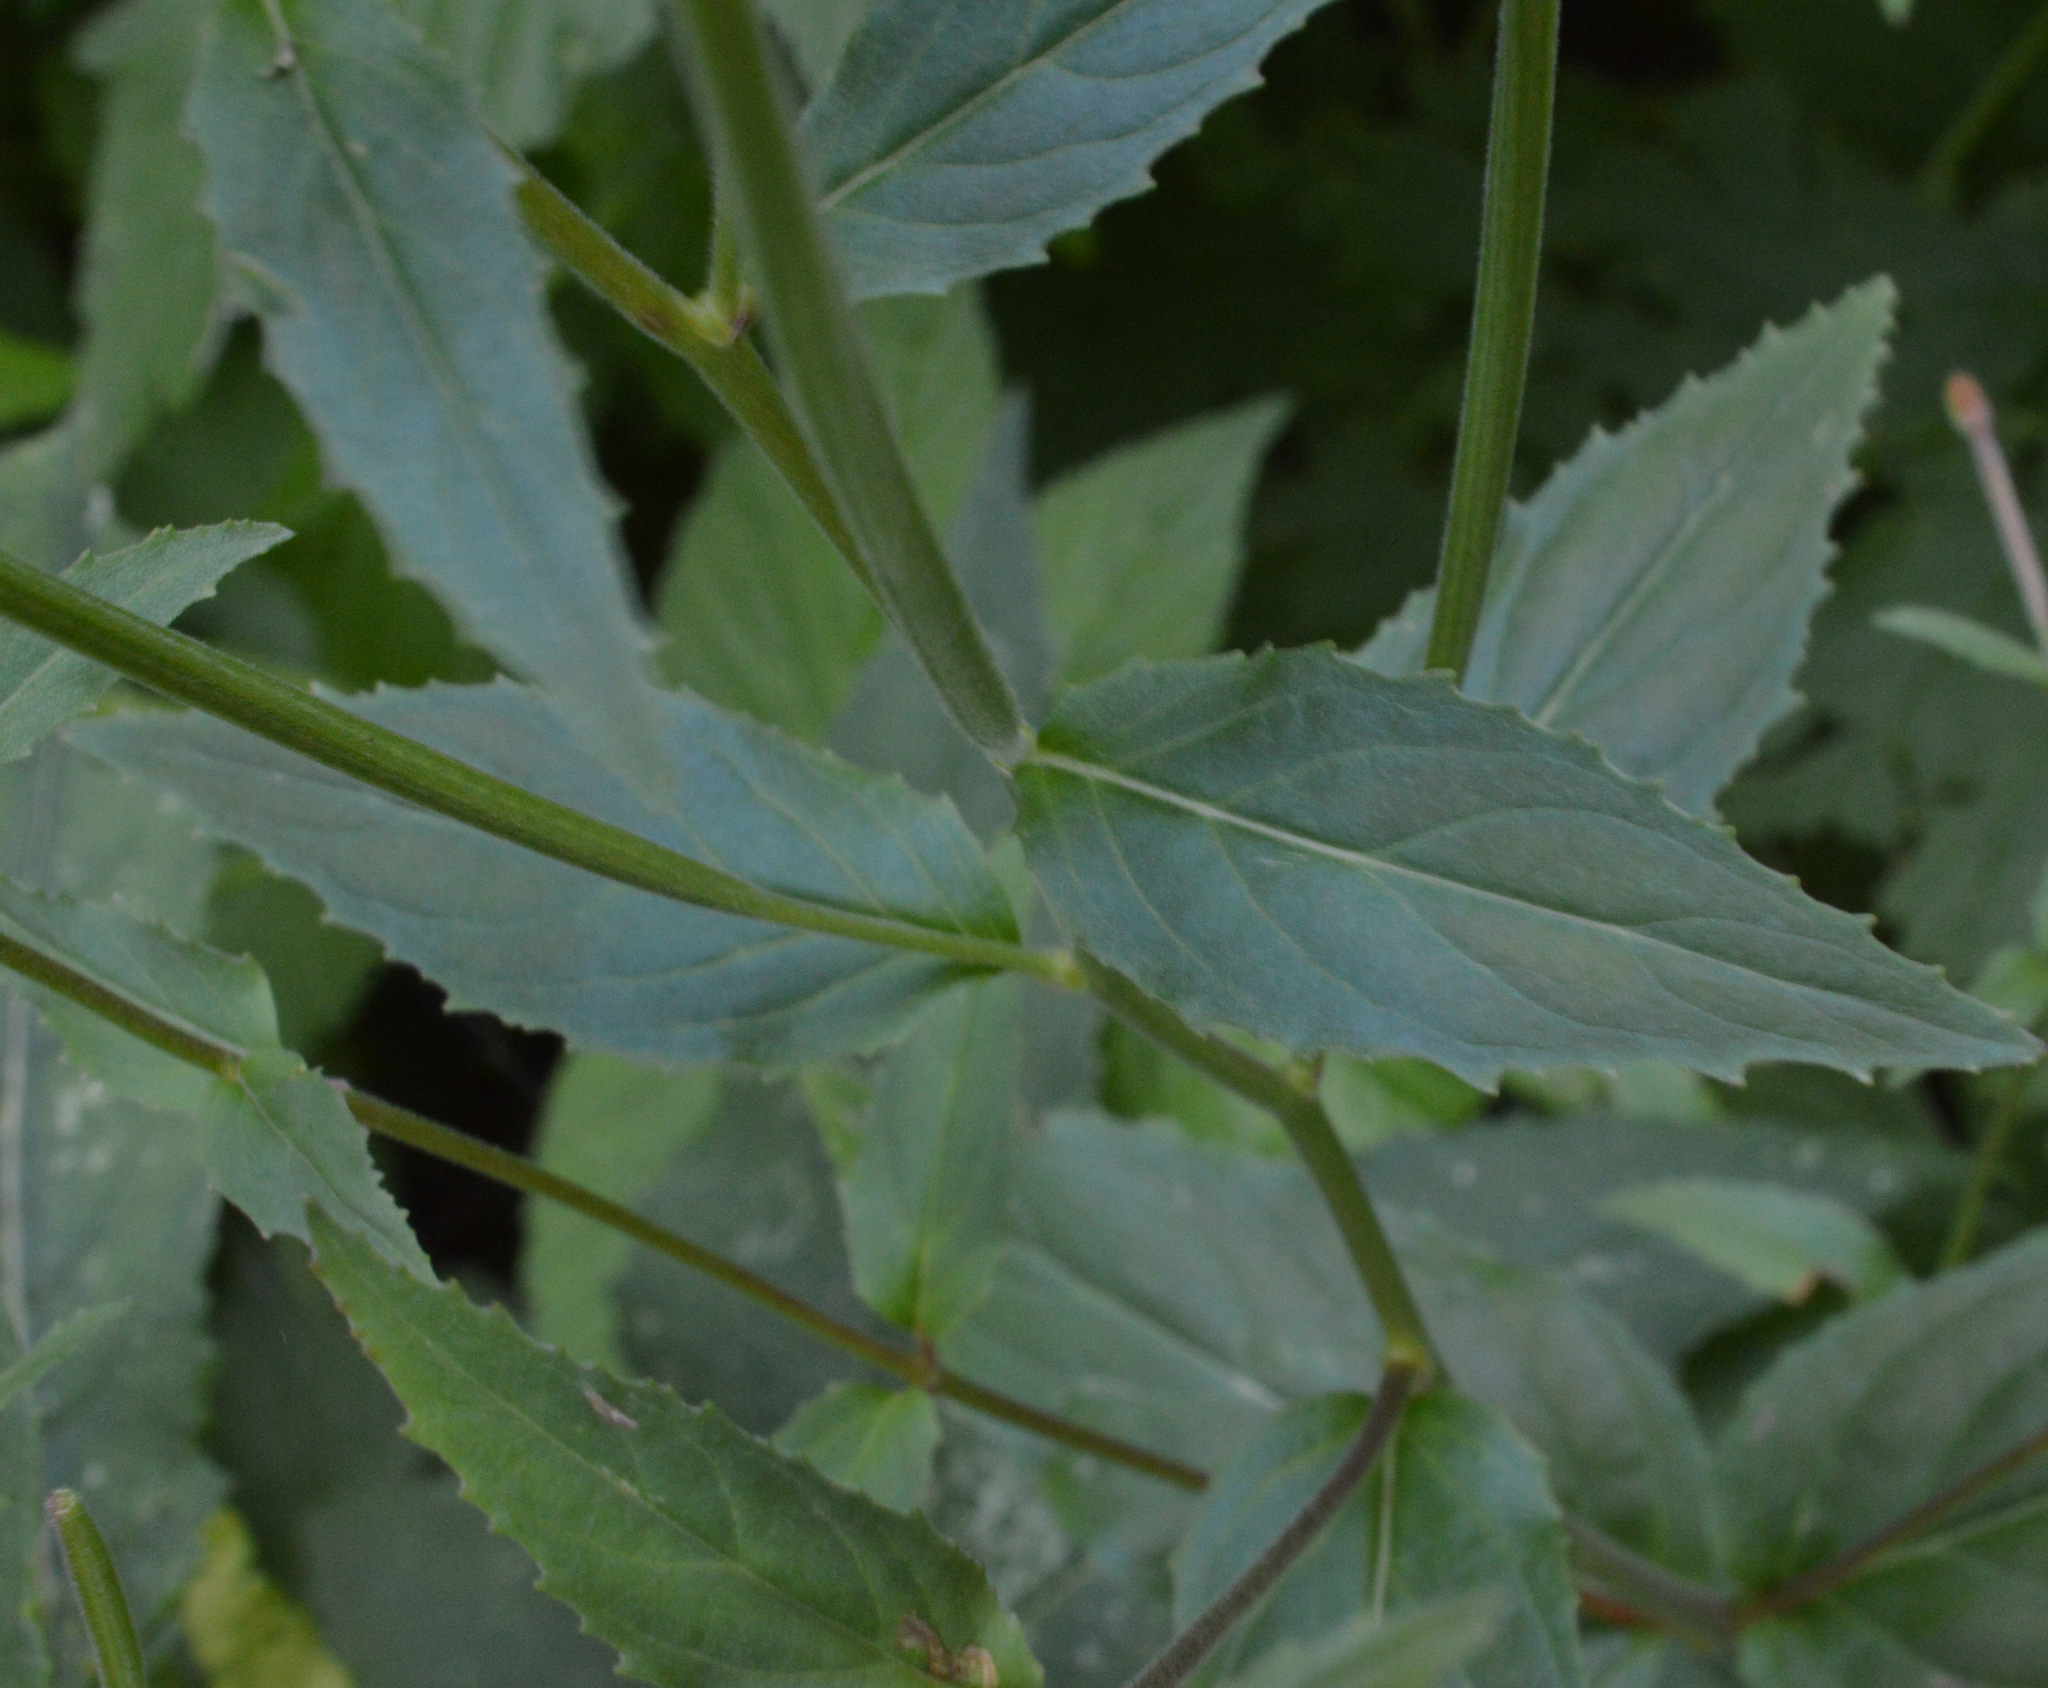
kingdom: Plantae
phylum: Tracheophyta
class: Magnoliopsida
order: Myrtales
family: Onagraceae
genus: Epilobium
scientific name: Epilobium montanum
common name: Broad-leaved willowherb
